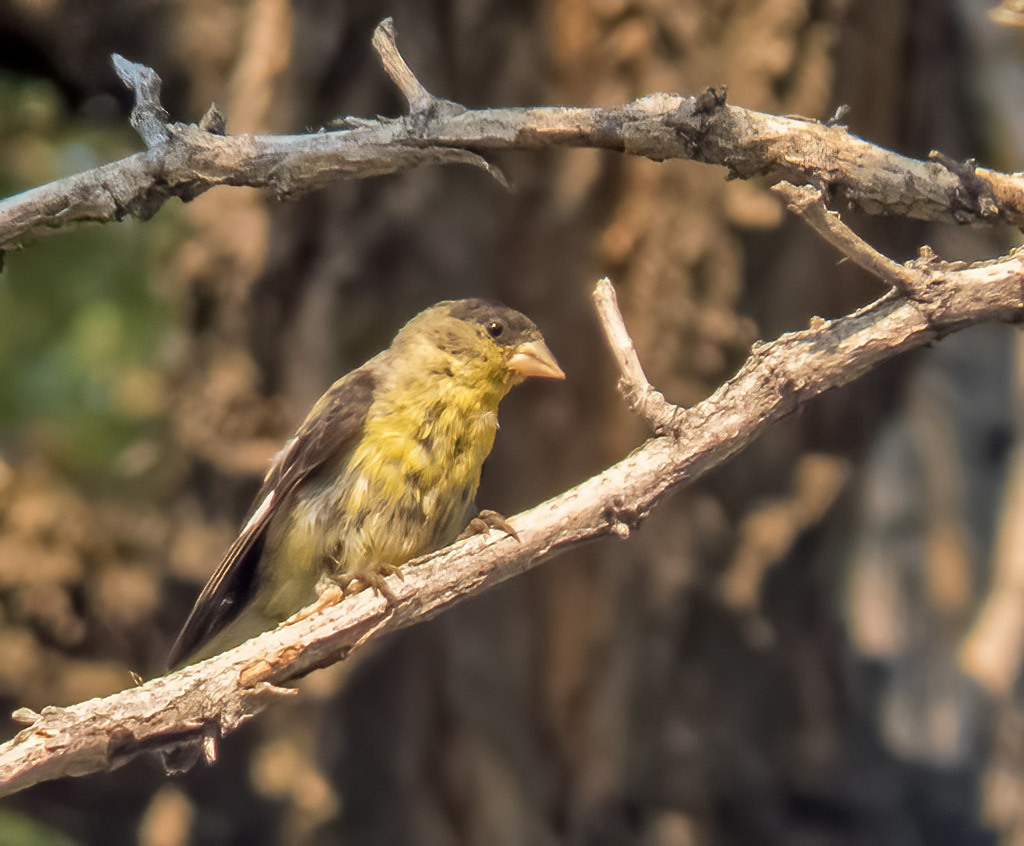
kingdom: Animalia
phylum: Chordata
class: Aves
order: Passeriformes
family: Fringillidae
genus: Spinus
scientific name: Spinus psaltria
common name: Lesser goldfinch
